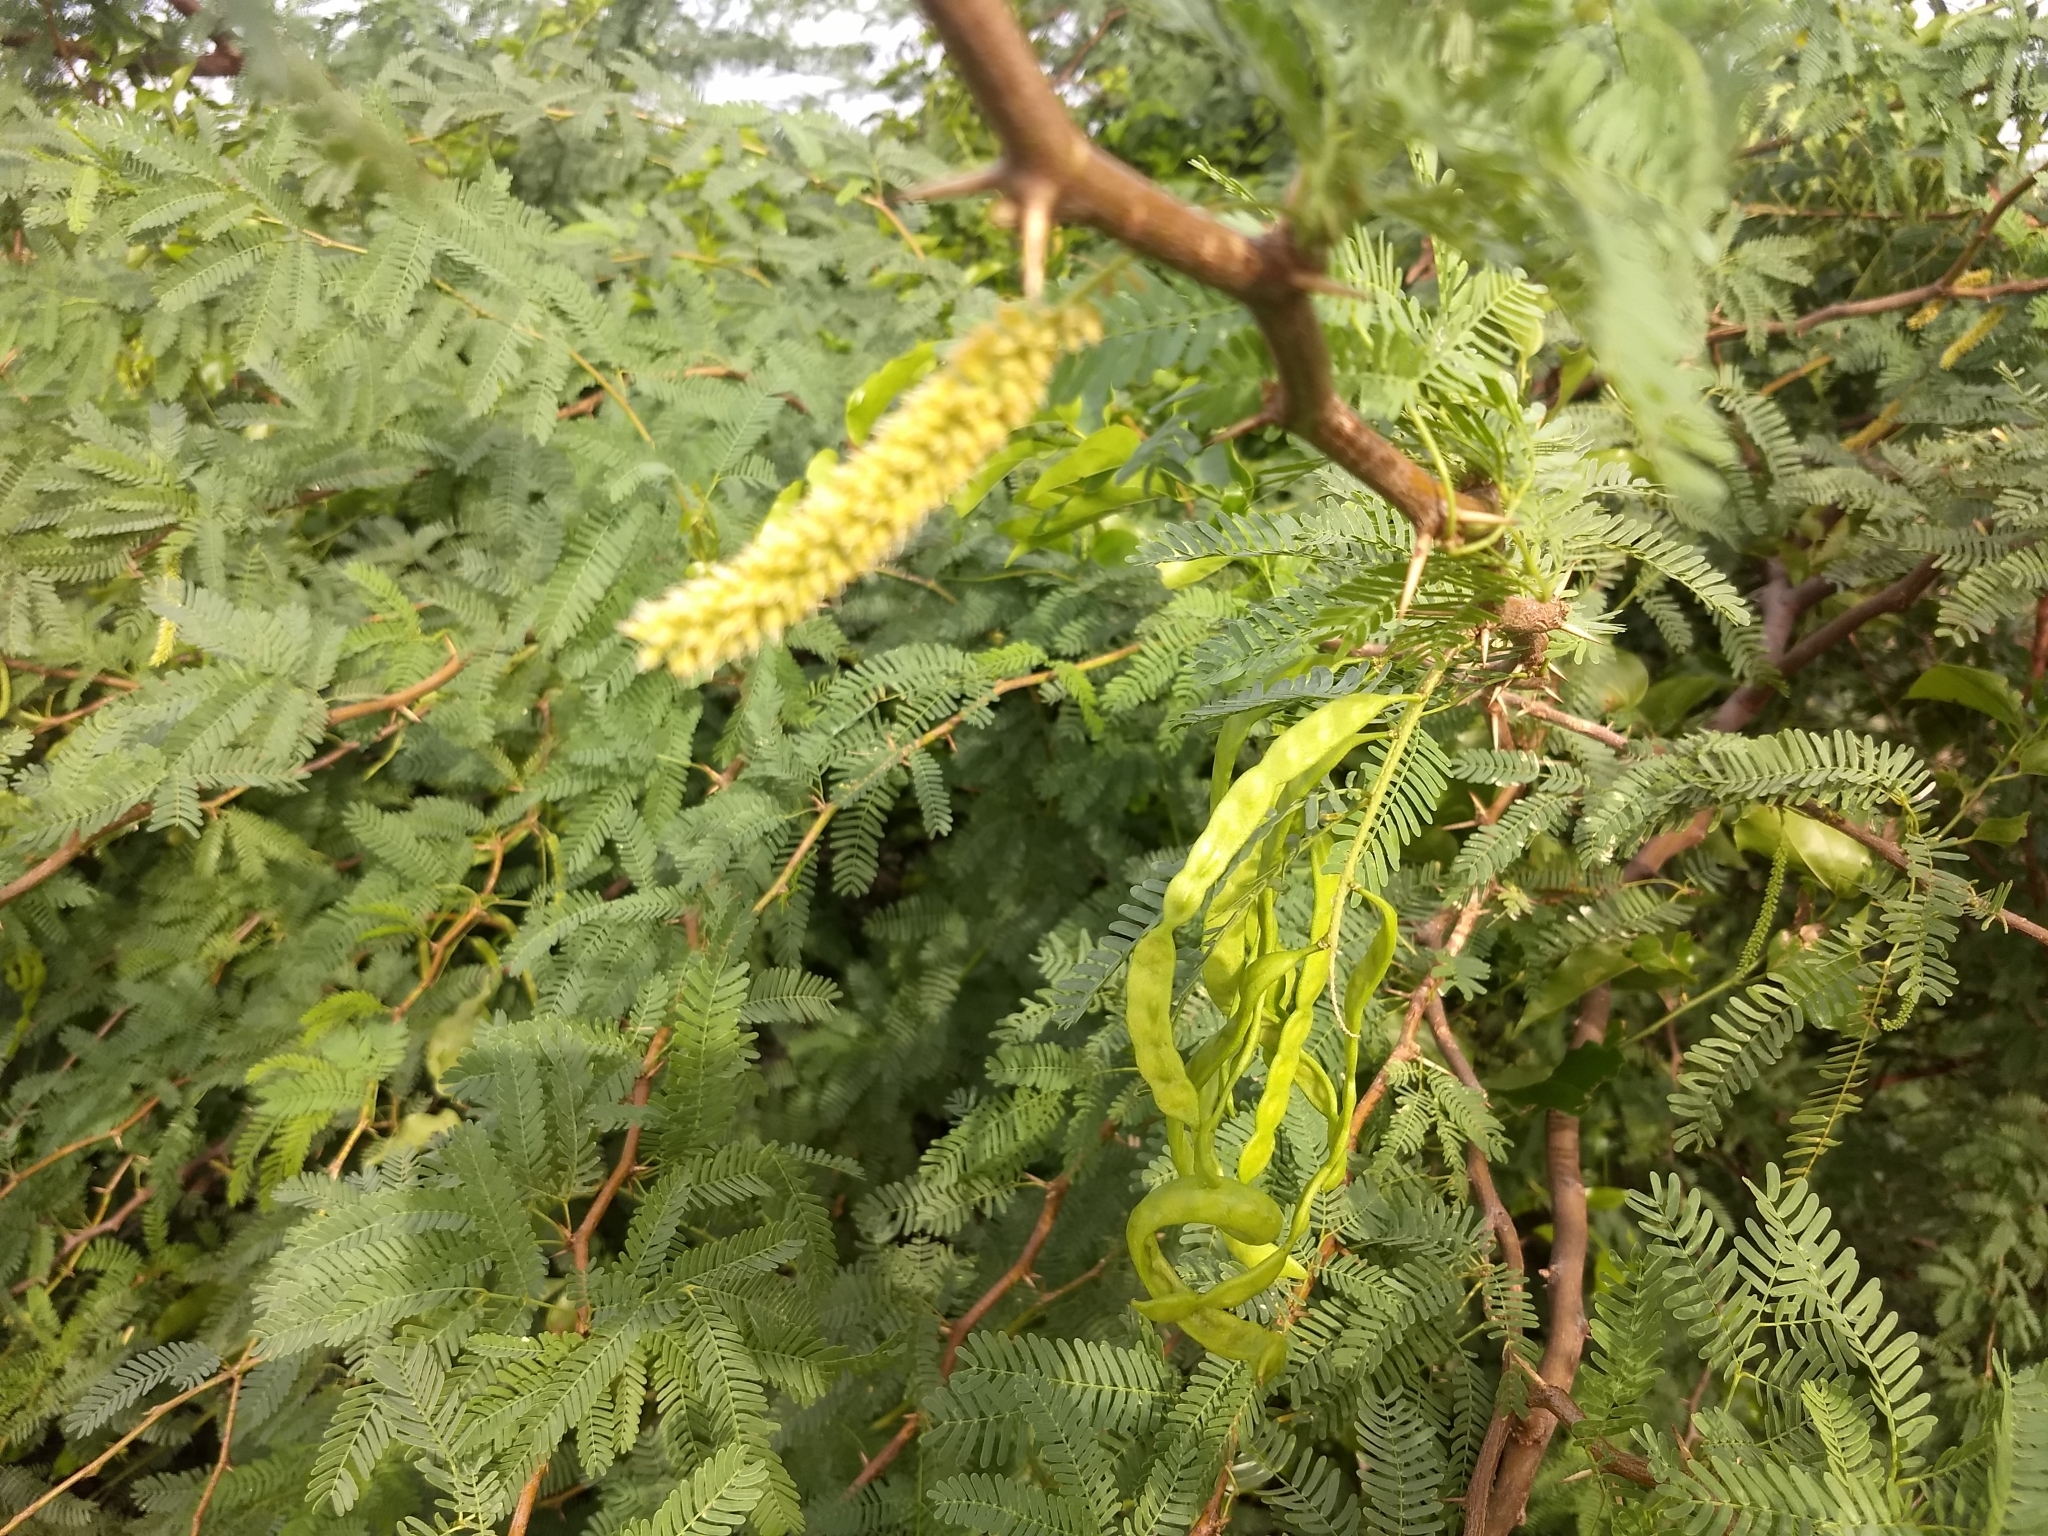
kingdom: Plantae
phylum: Tracheophyta
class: Magnoliopsida
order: Fabales
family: Fabaceae
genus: Prosopis
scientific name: Prosopis juliflora
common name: Mesquite
